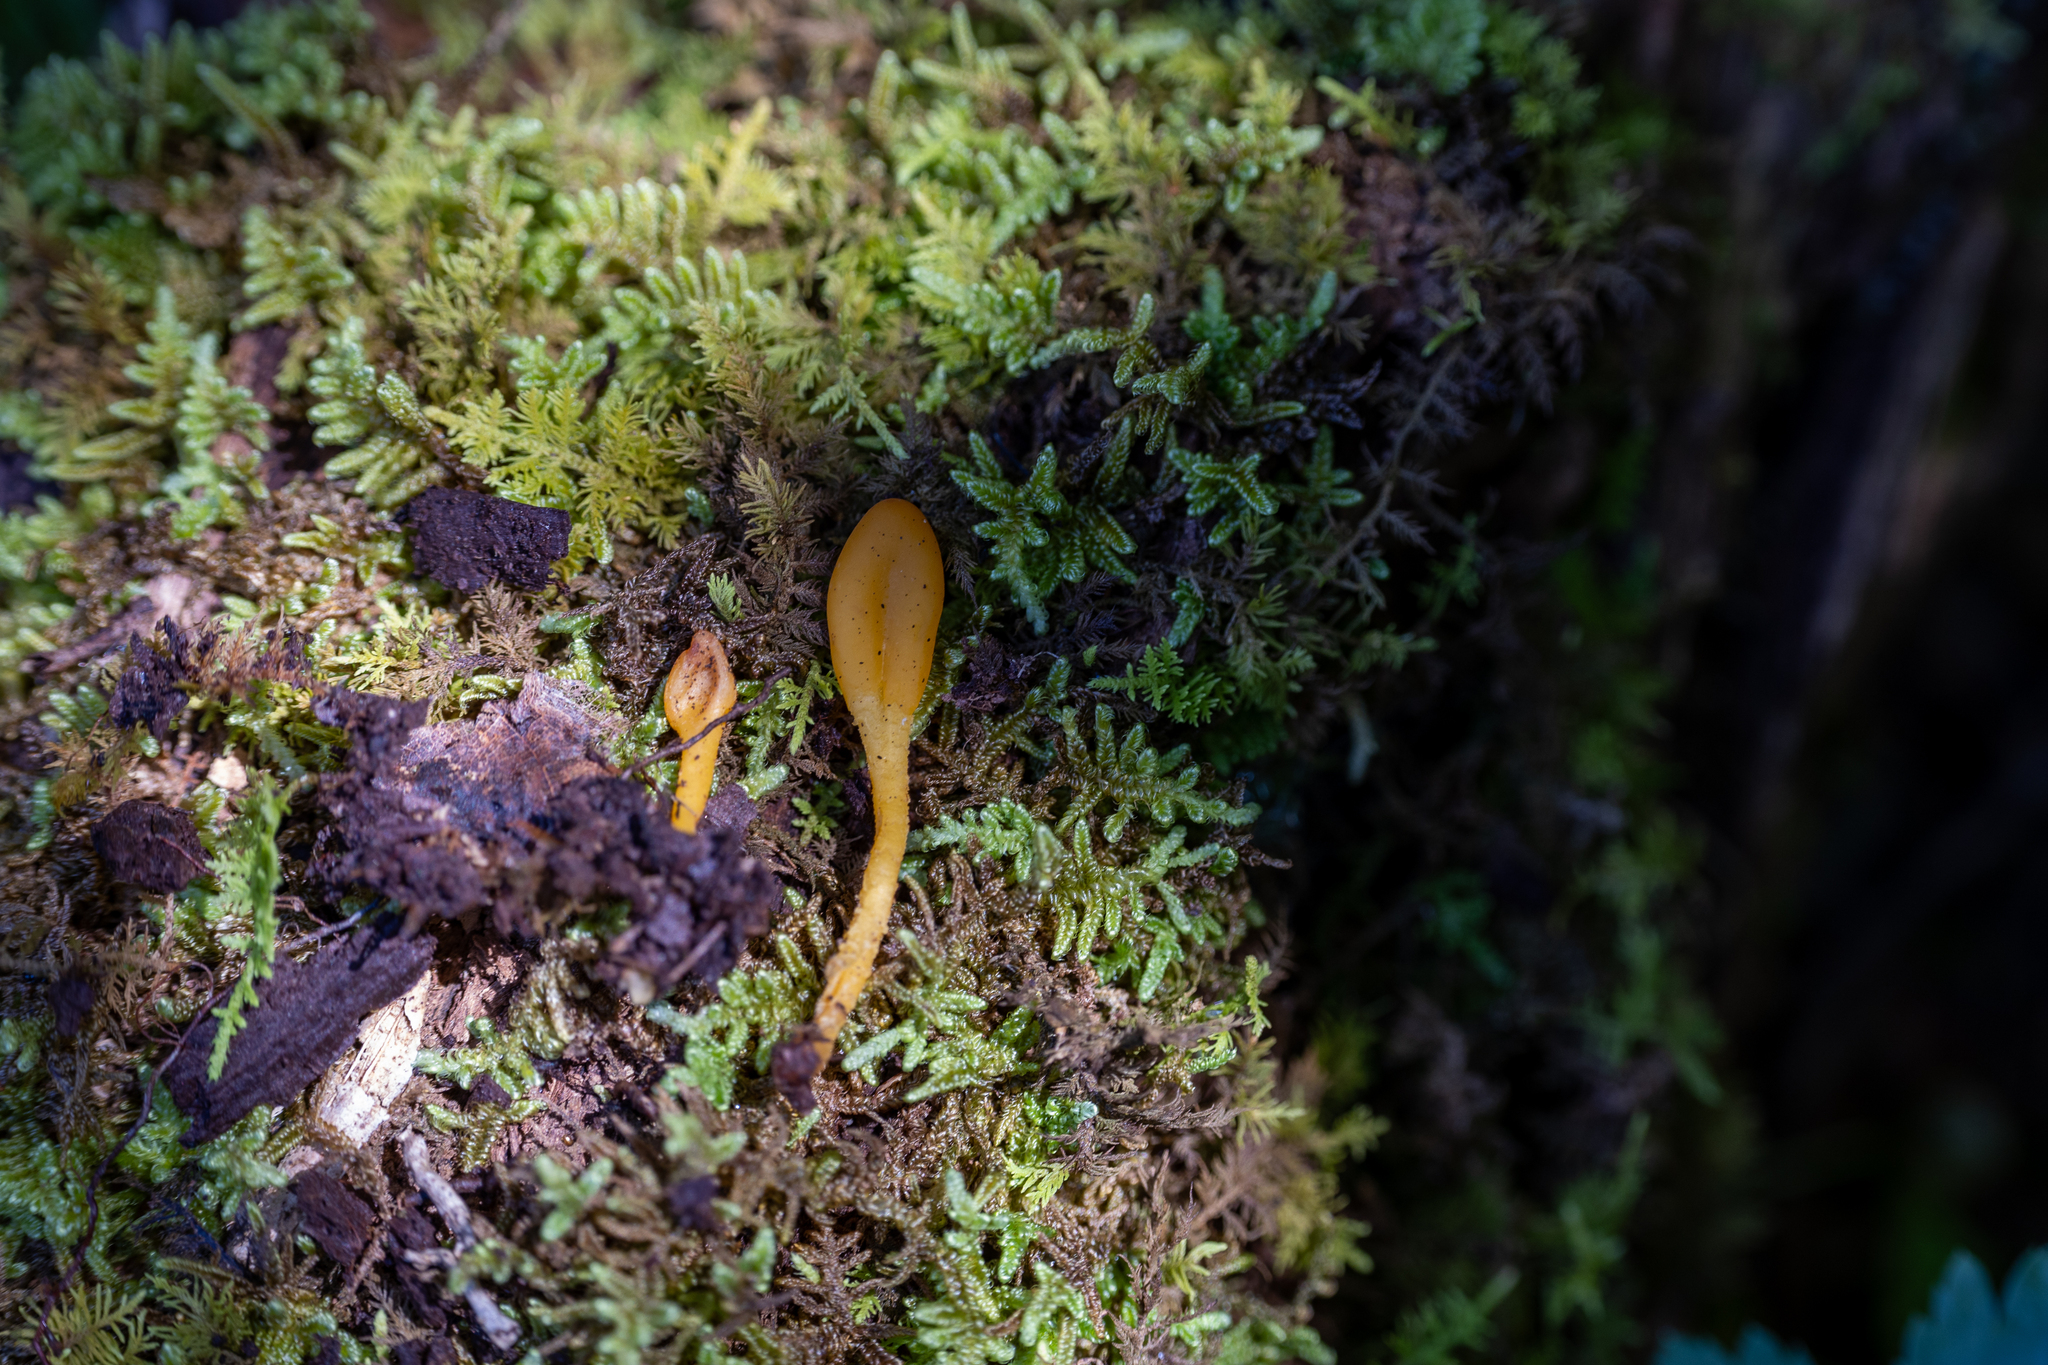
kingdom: Fungi
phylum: Ascomycota
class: Leotiomycetes
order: Leotiales
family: Leotiaceae
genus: Microglossum
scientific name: Microglossum rufum
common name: Orange earthtongue
